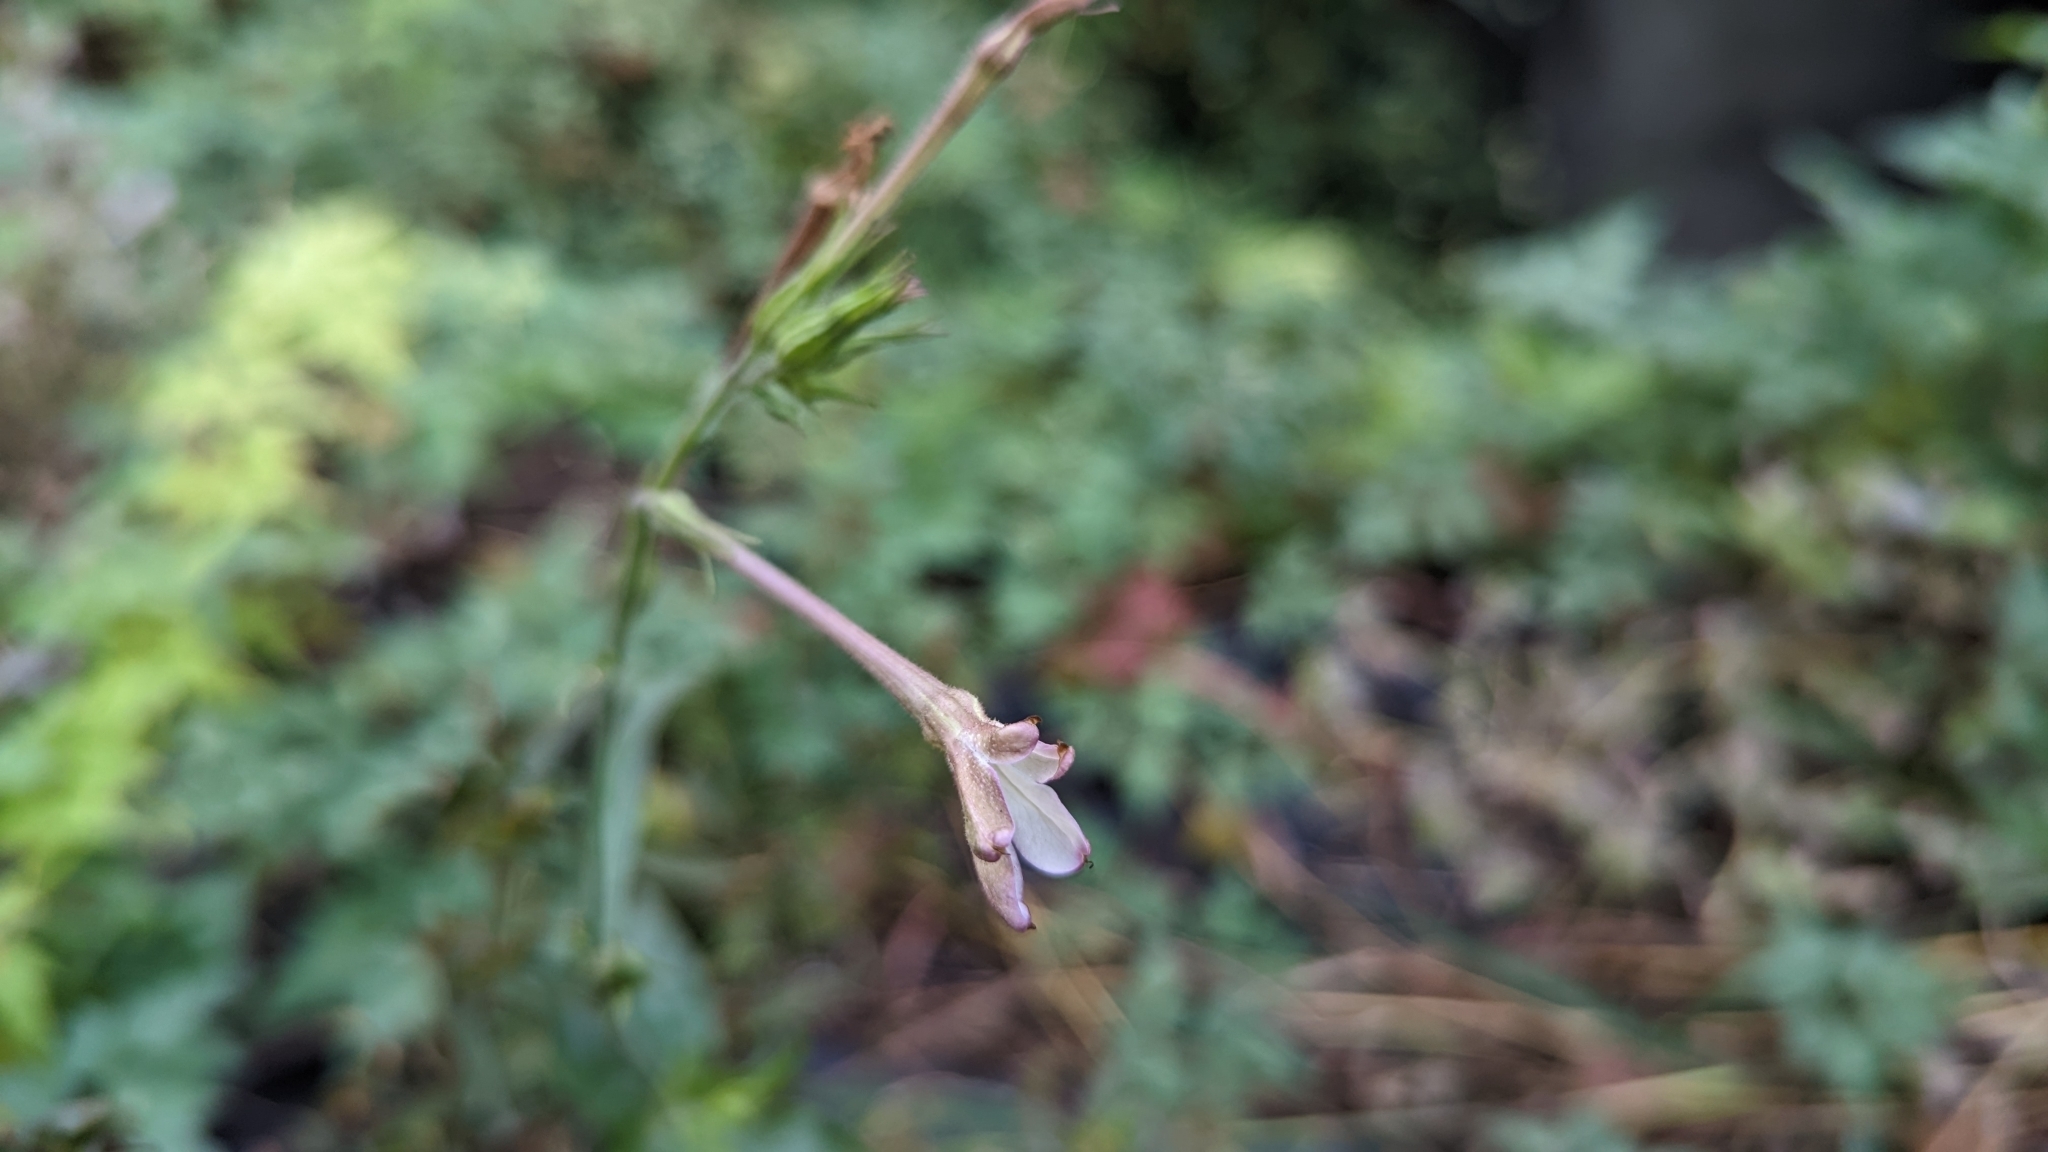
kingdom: Plantae
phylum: Tracheophyta
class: Magnoliopsida
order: Solanales
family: Solanaceae
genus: Nicotiana
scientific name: Nicotiana plumbaginifolia
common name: Tex-mex tobacco
